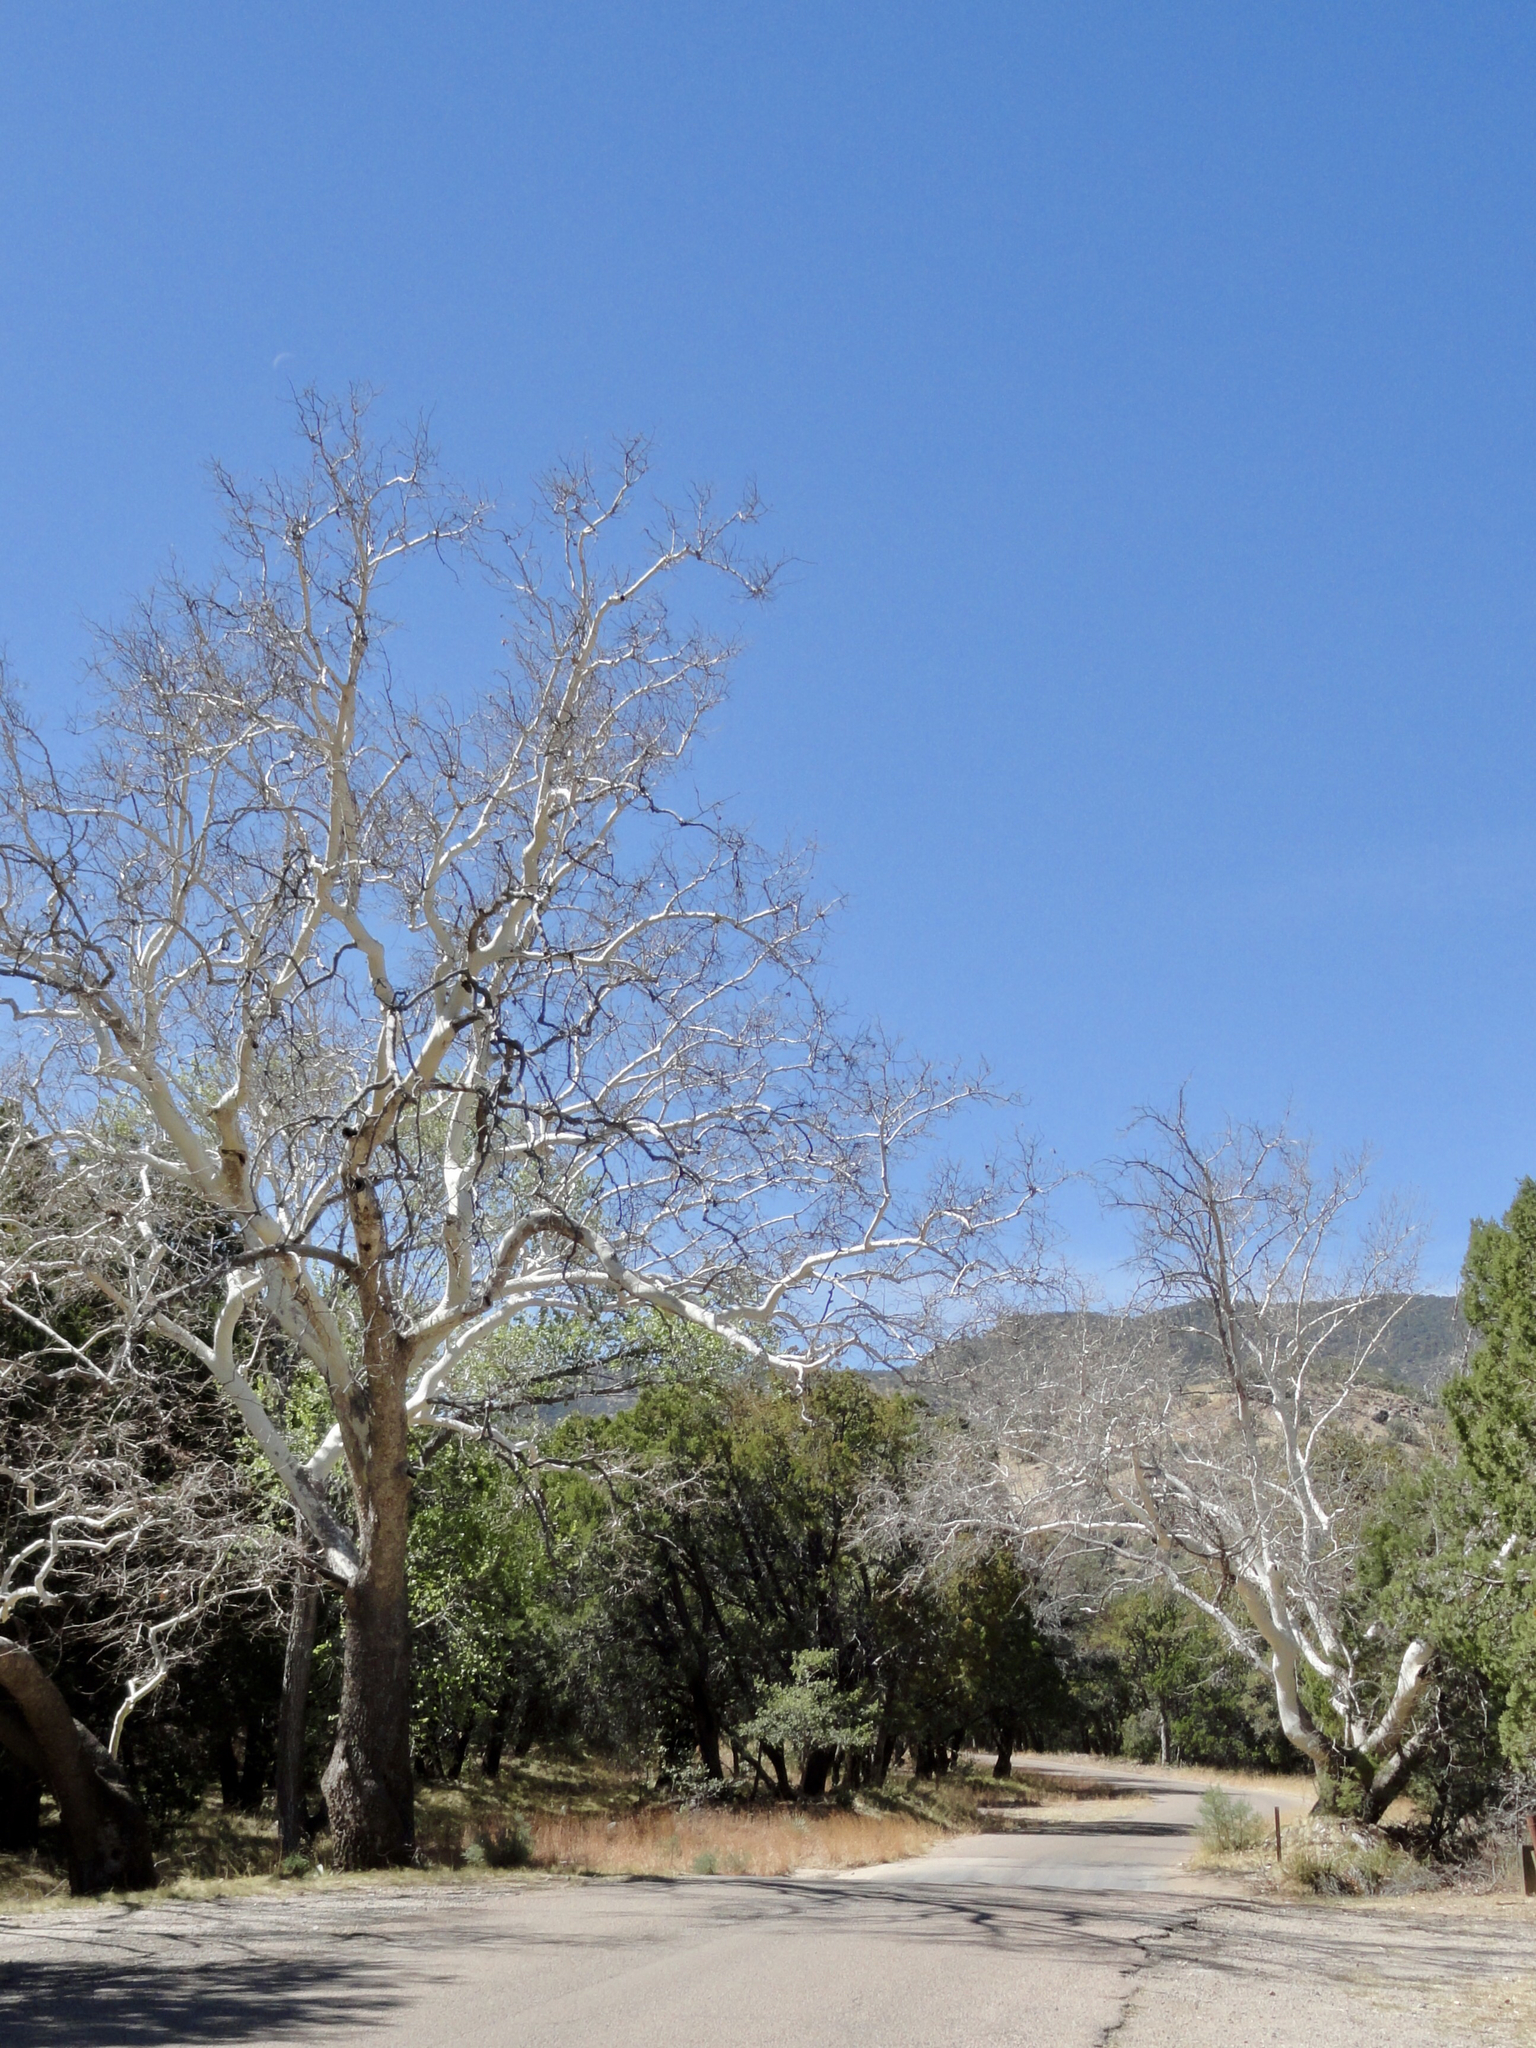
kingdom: Plantae
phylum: Tracheophyta
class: Magnoliopsida
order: Proteales
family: Platanaceae
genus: Platanus
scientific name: Platanus wrightii
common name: Arizona sycamore
